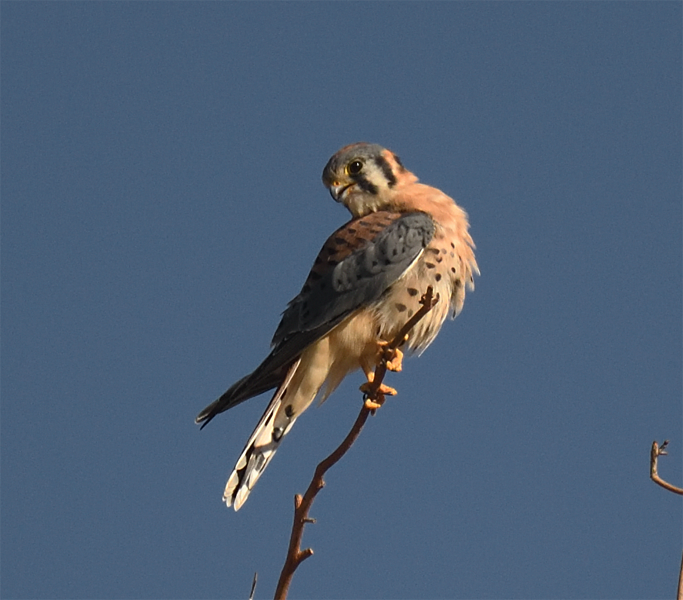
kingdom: Animalia
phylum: Chordata
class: Aves
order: Falconiformes
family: Falconidae
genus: Falco
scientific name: Falco sparverius
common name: American kestrel
